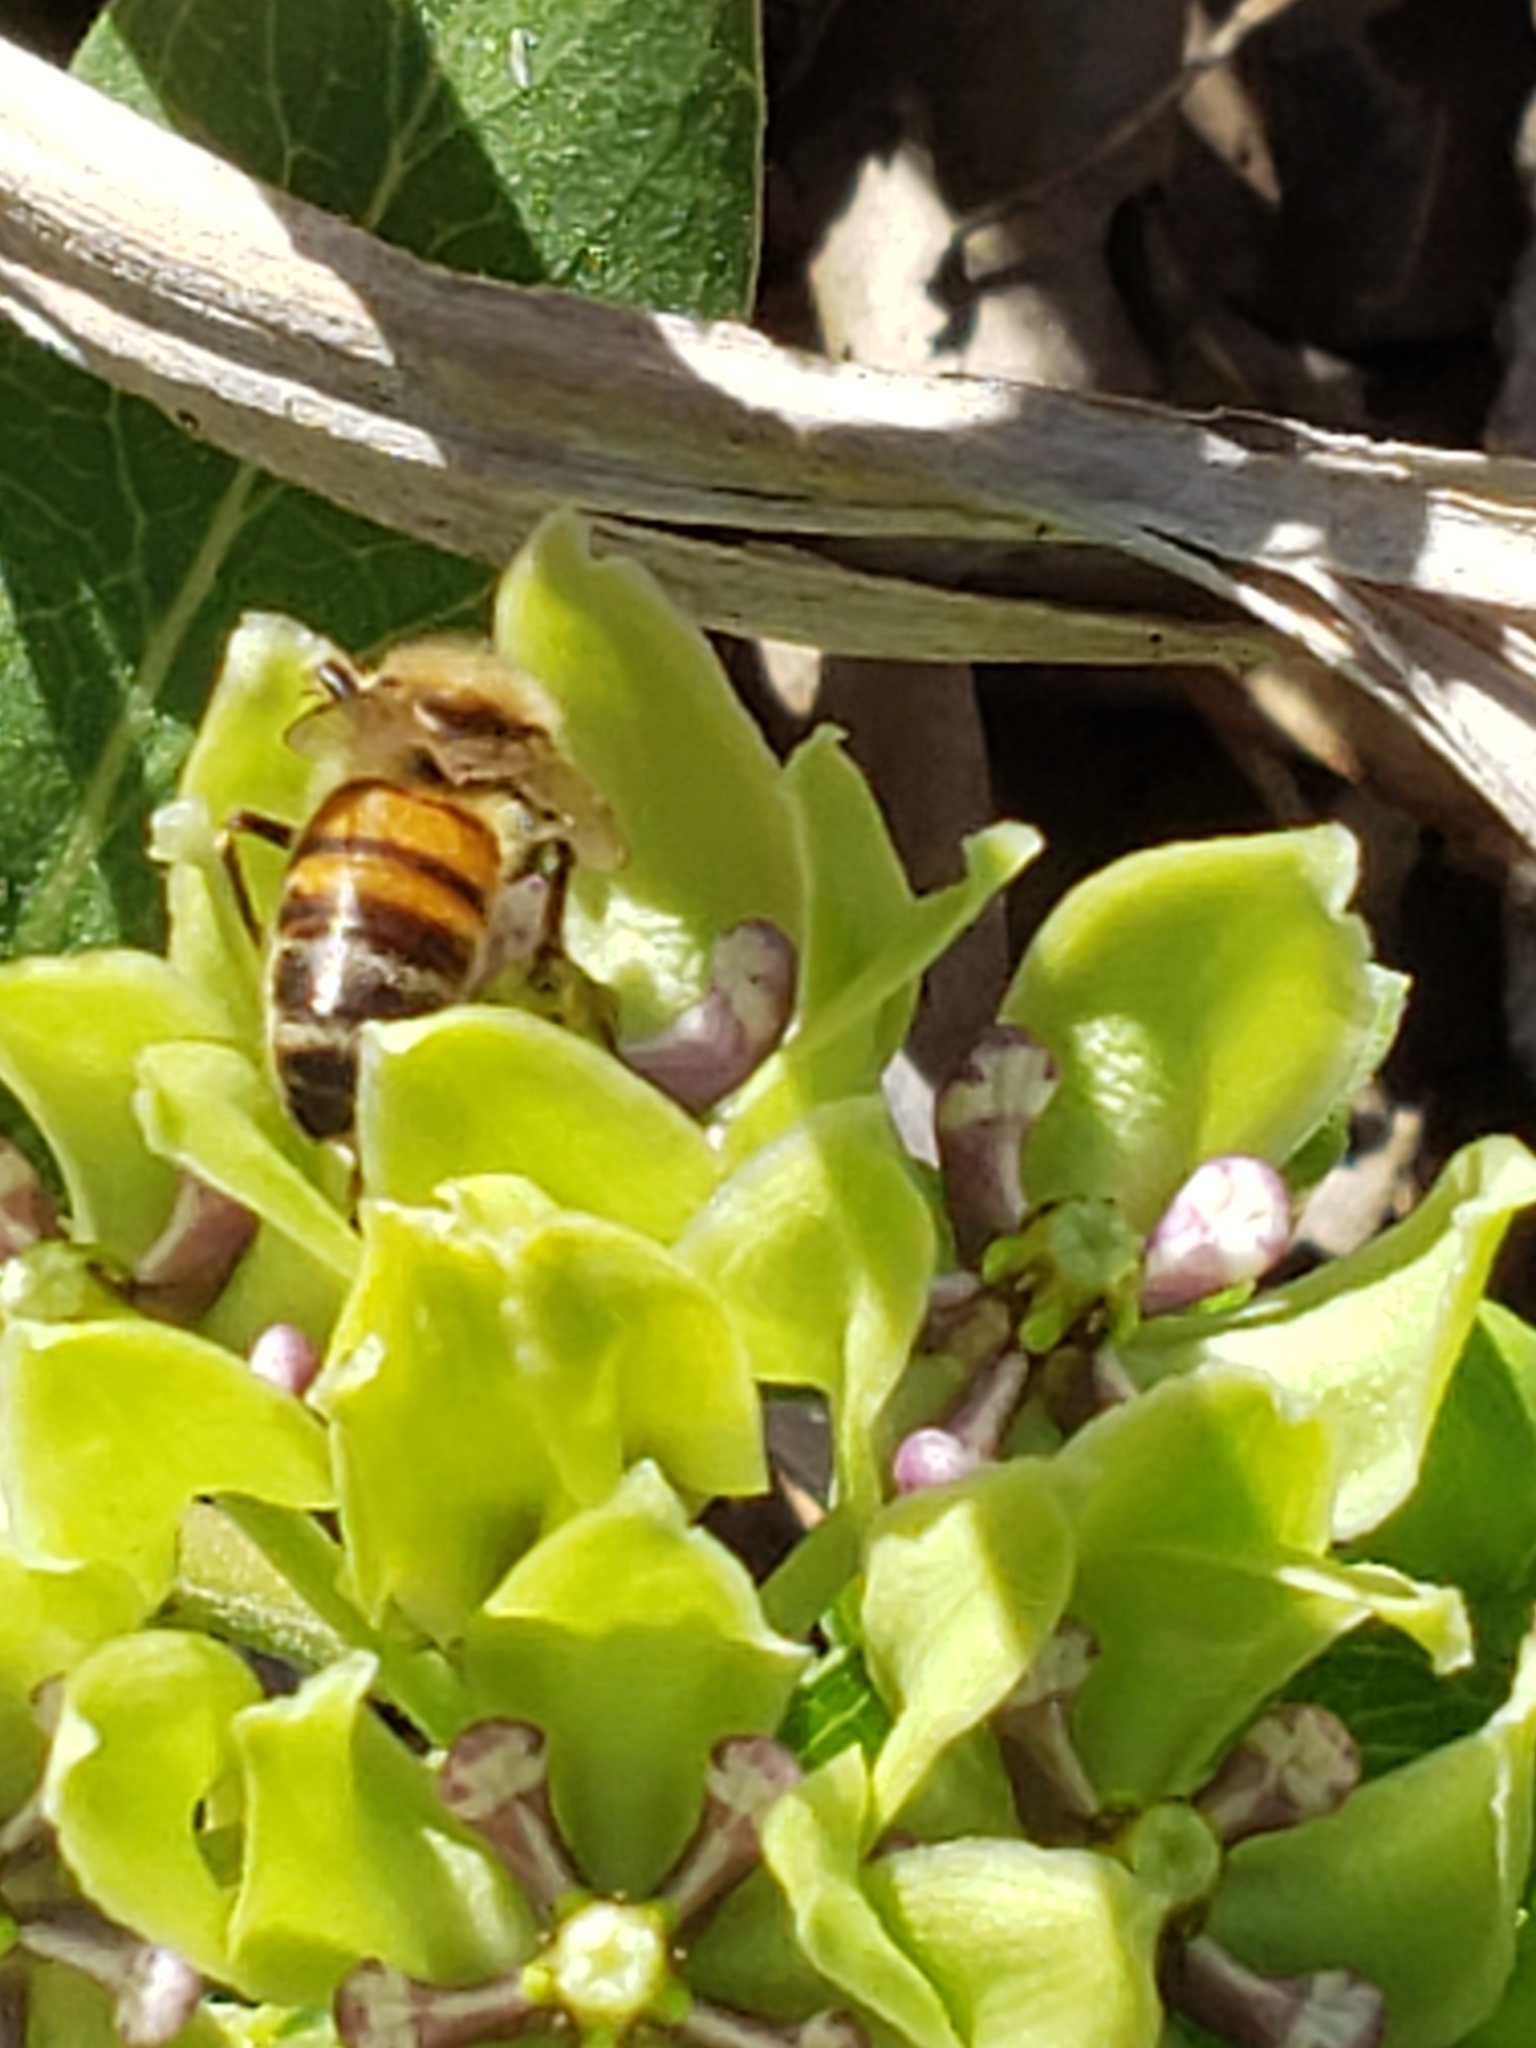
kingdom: Animalia
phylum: Arthropoda
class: Insecta
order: Hymenoptera
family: Apidae
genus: Apis
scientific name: Apis mellifera
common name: Honey bee
